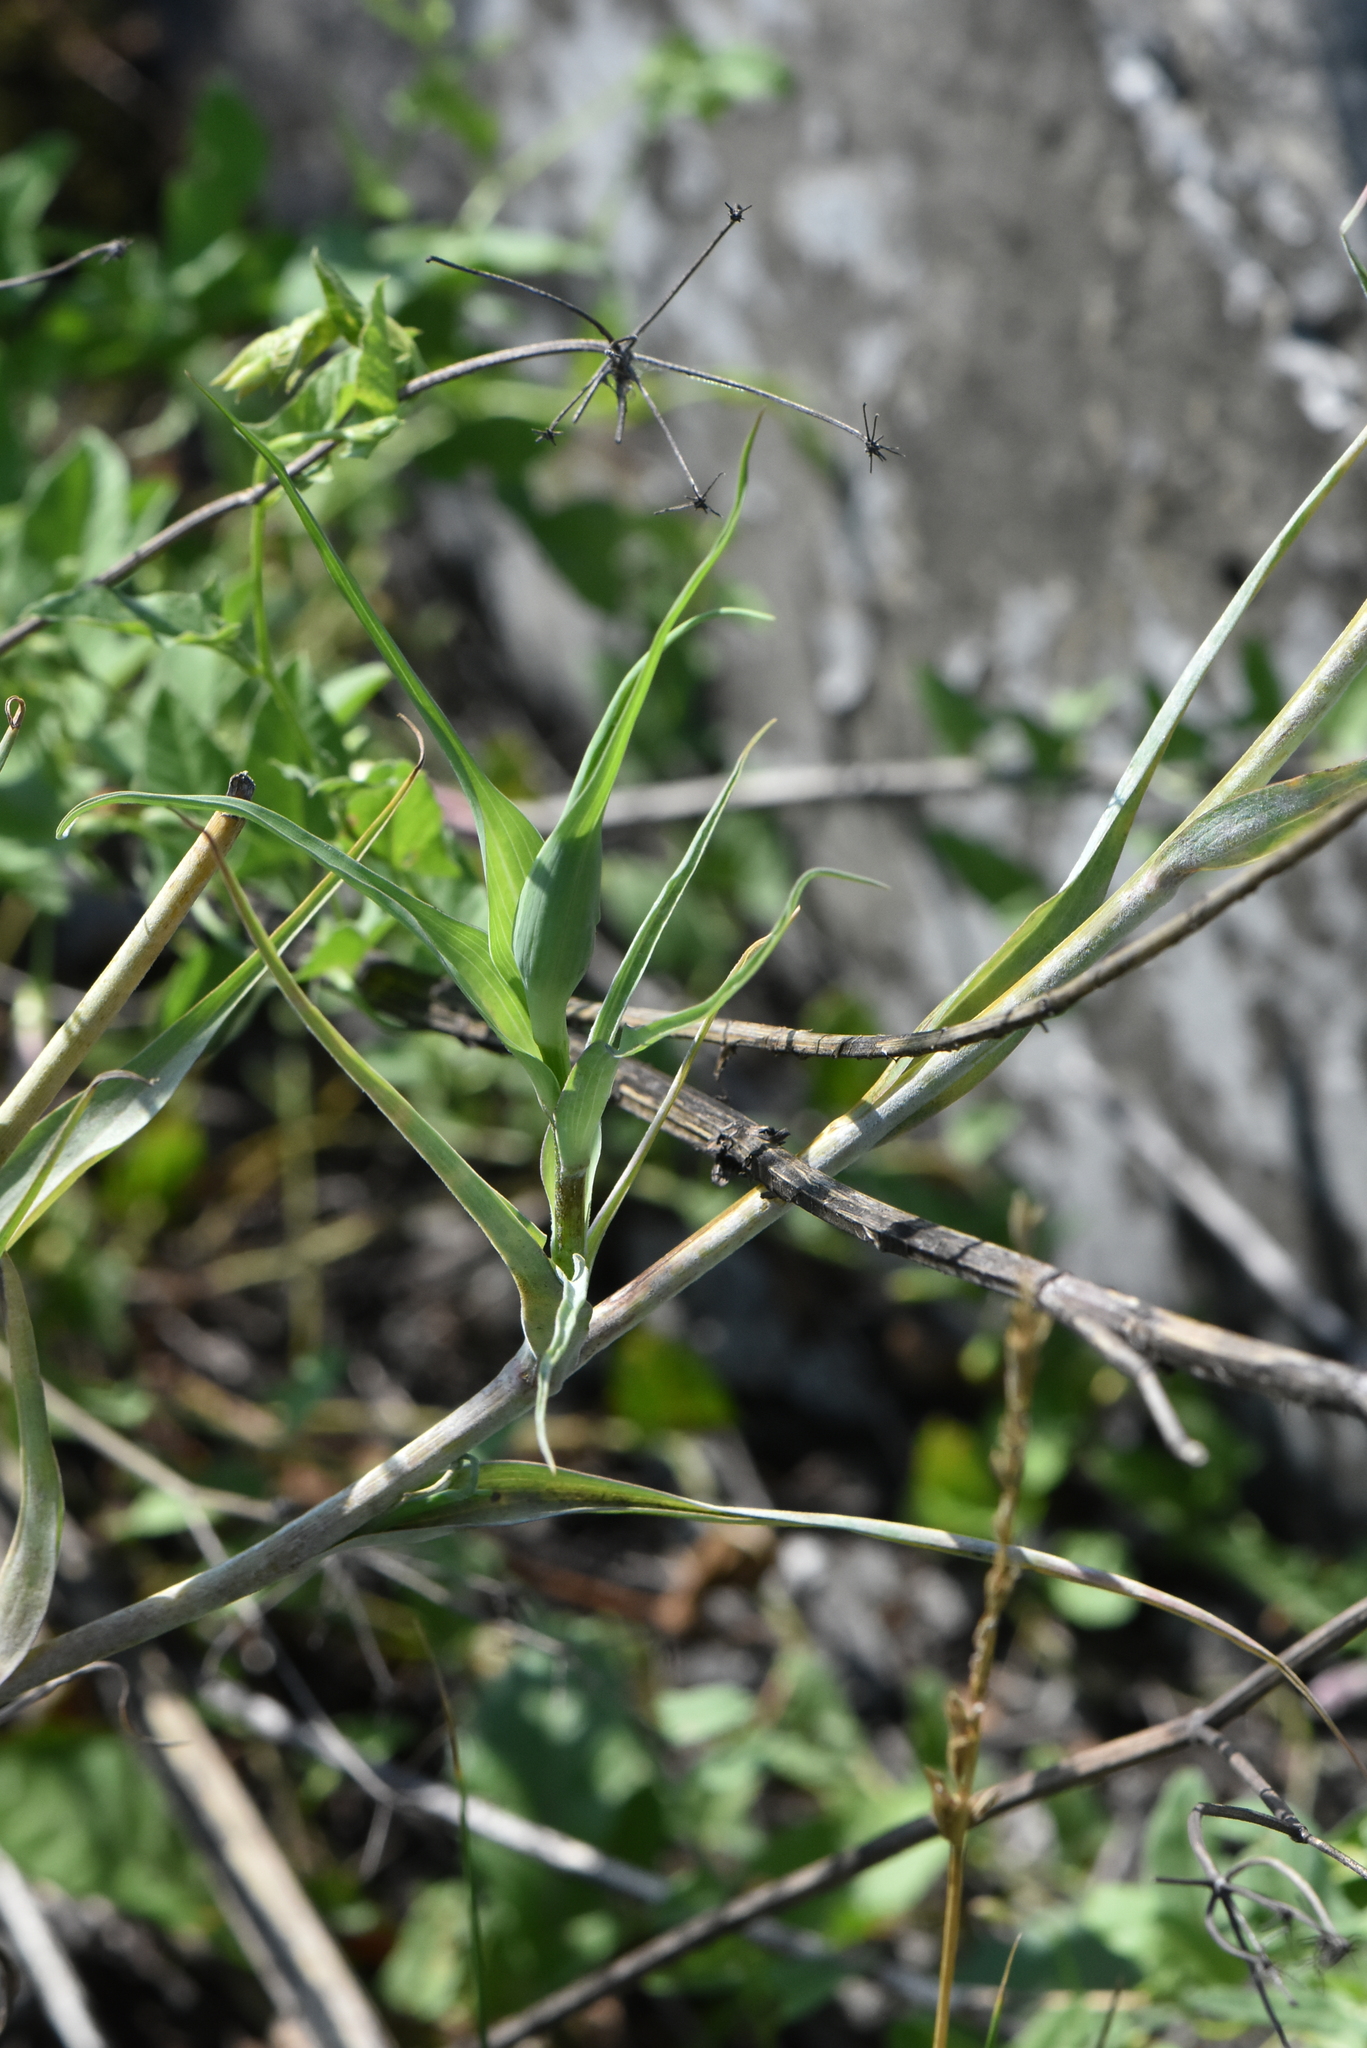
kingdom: Plantae
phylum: Tracheophyta
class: Magnoliopsida
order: Asterales
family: Asteraceae
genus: Tragopogon
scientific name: Tragopogon dubius
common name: Yellow salsify
